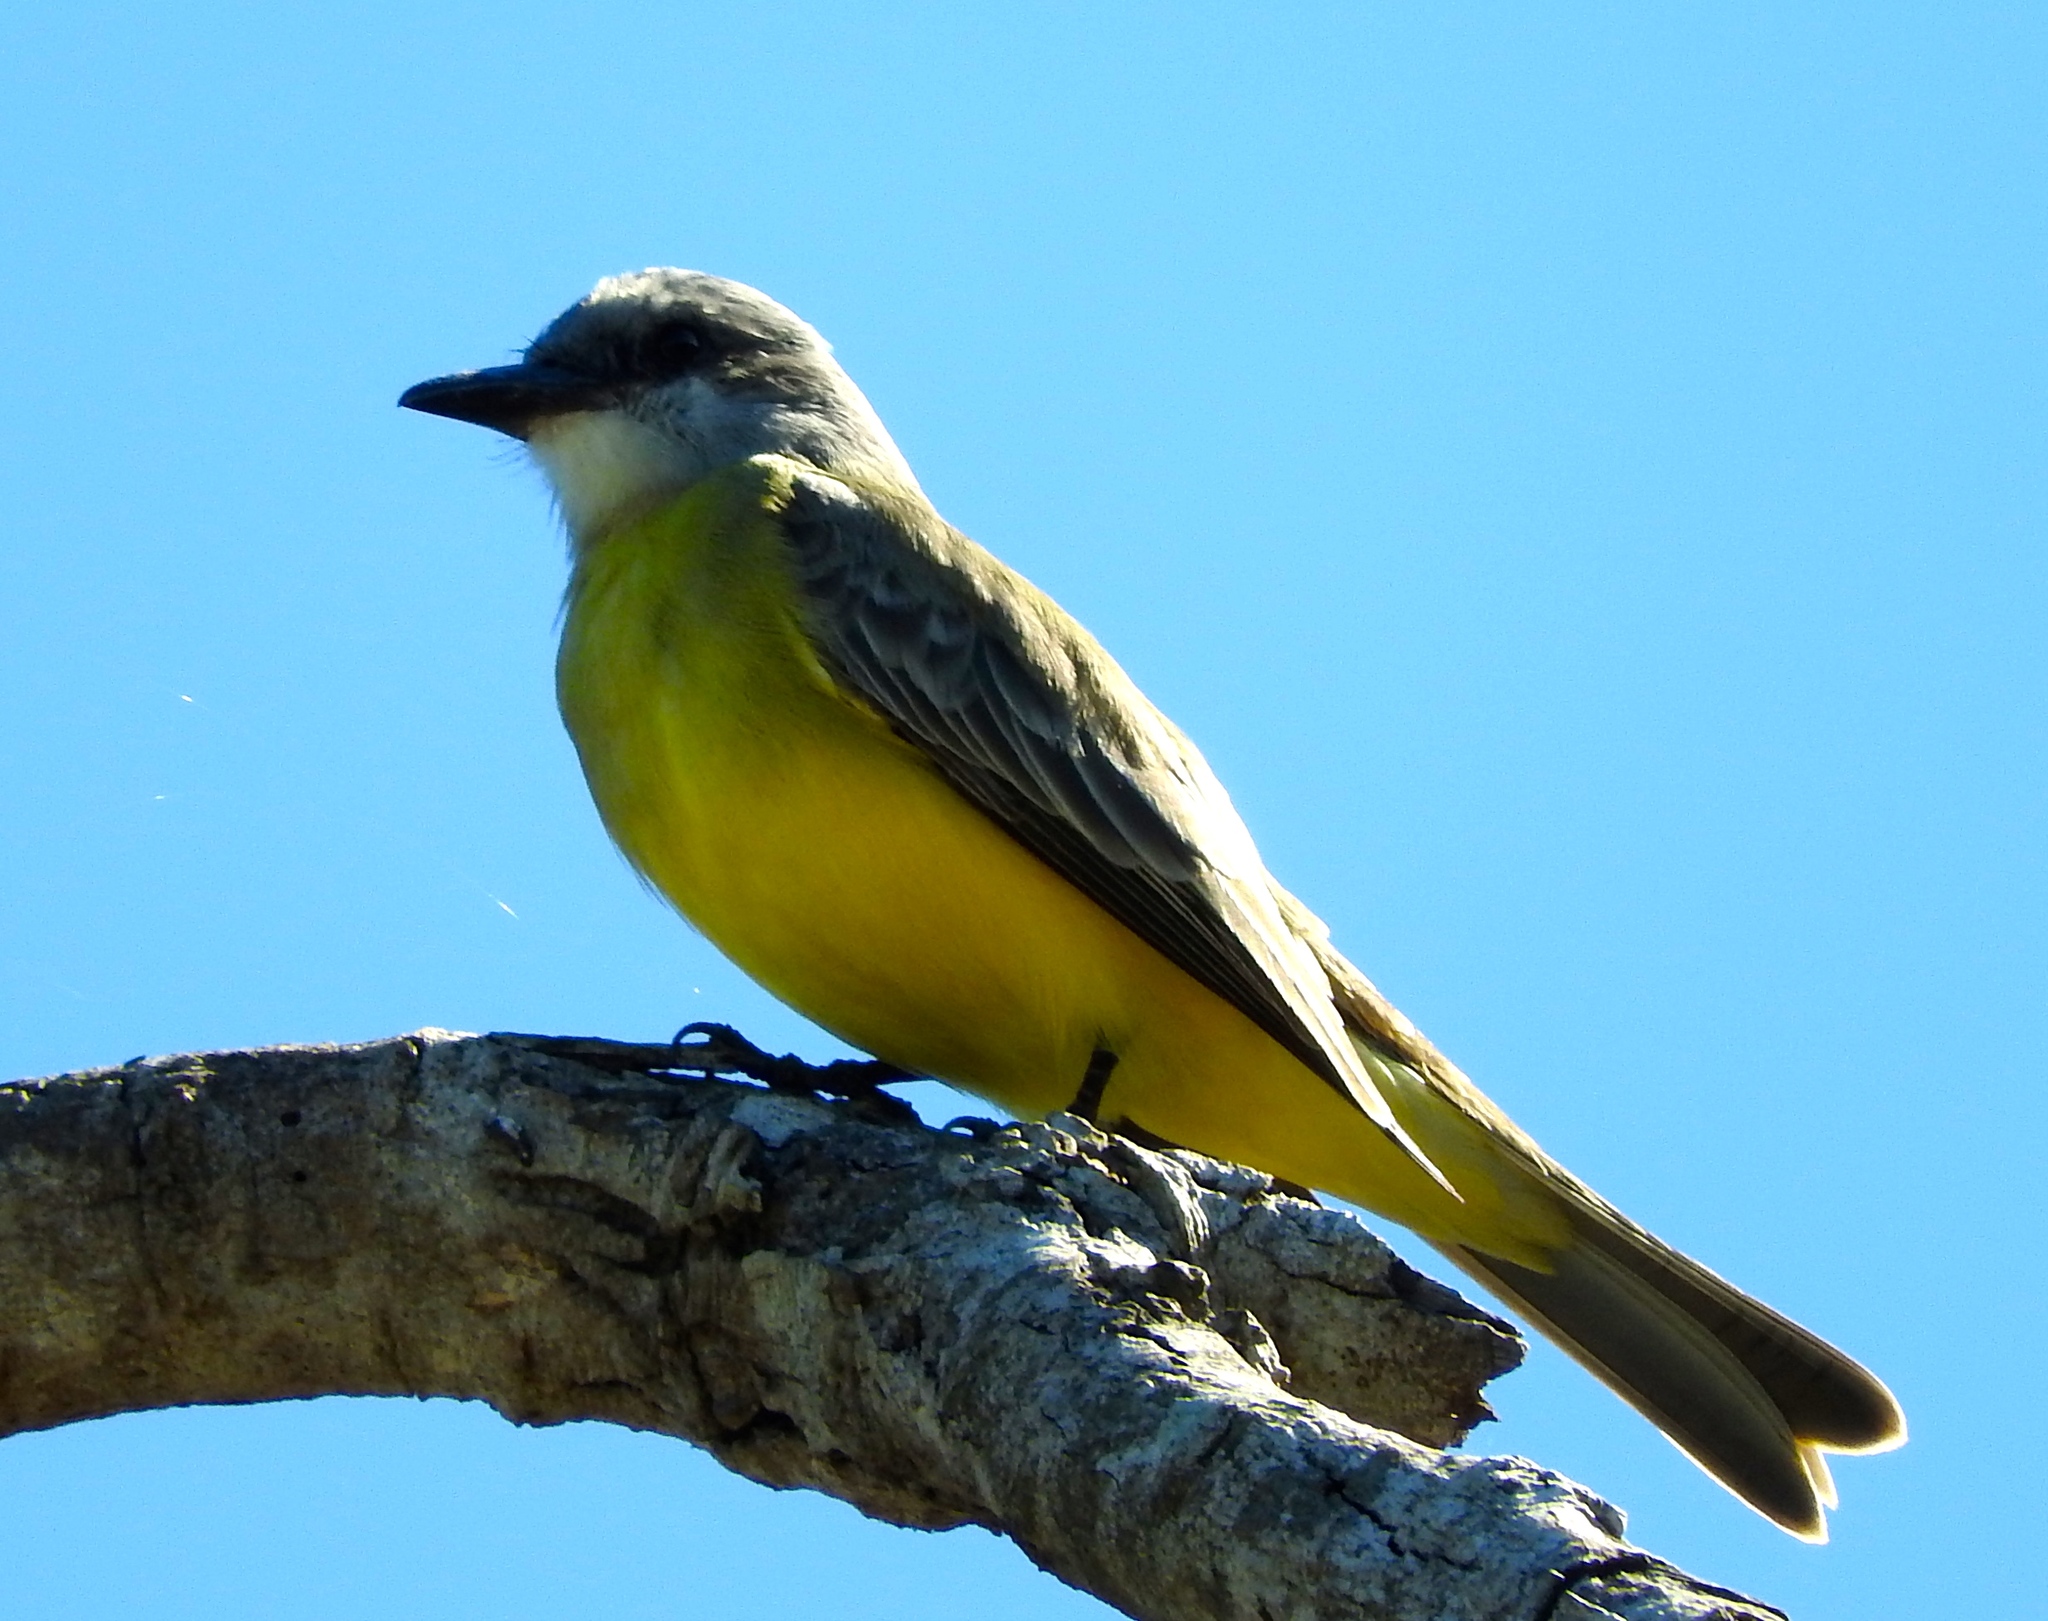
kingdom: Animalia
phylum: Chordata
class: Aves
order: Passeriformes
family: Tyrannidae
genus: Tyrannus
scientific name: Tyrannus melancholicus
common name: Tropical kingbird
